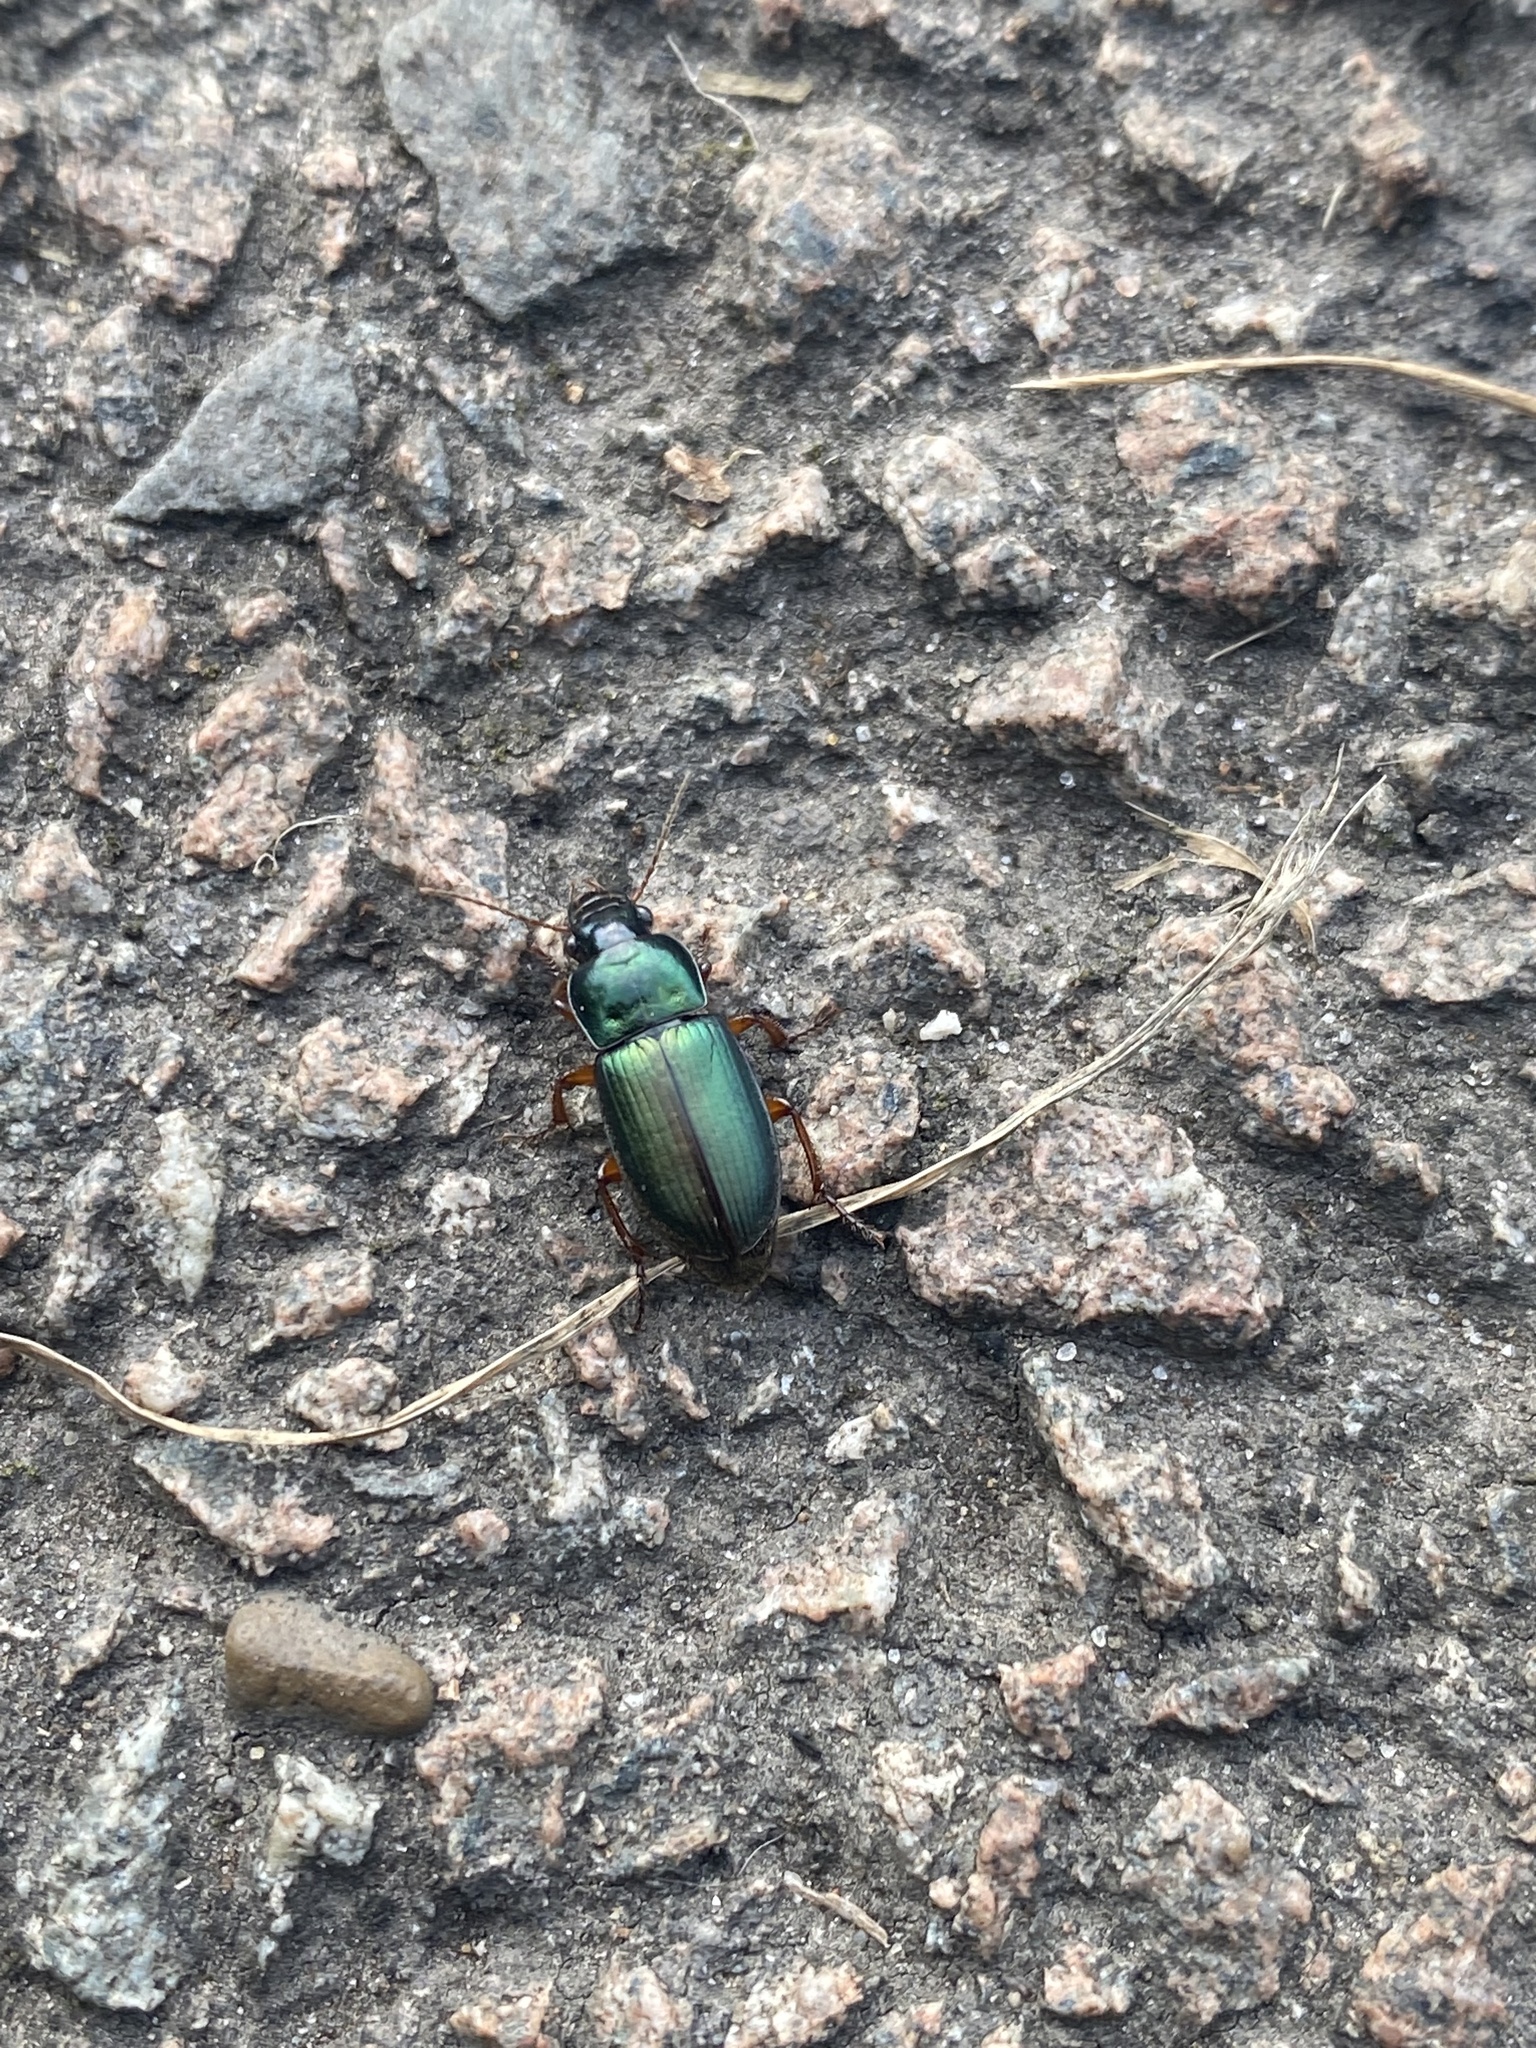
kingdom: Animalia
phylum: Arthropoda
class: Insecta
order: Coleoptera
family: Carabidae
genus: Harpalus
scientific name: Harpalus affinis
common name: Polychrome harp ground beetle
